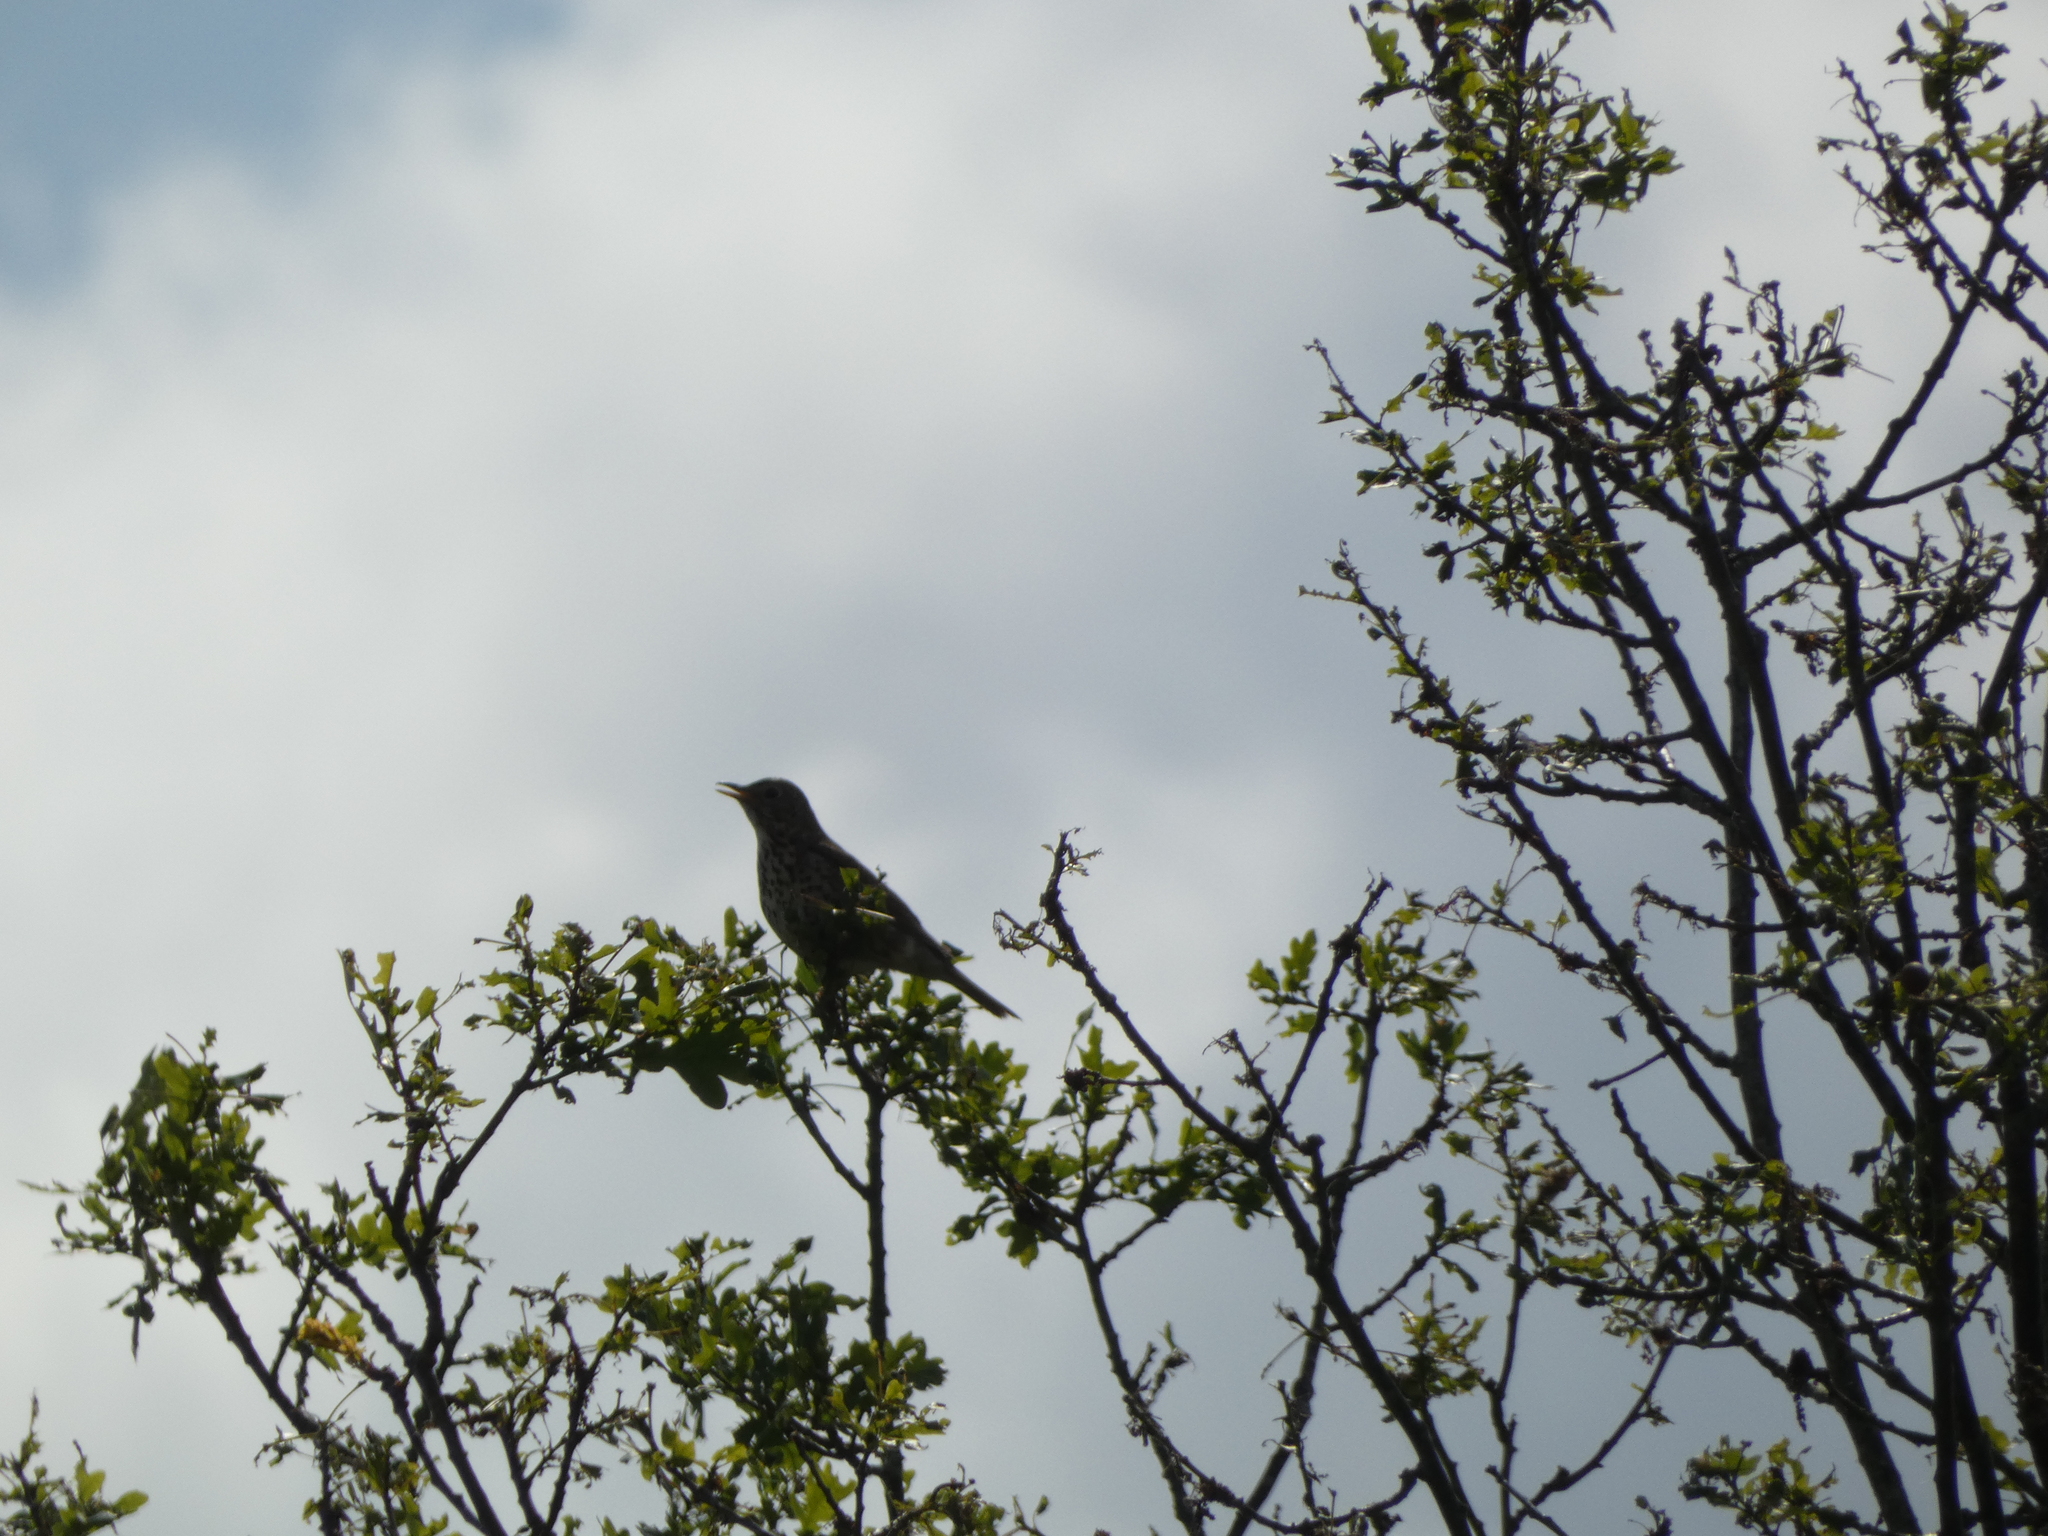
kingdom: Animalia
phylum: Chordata
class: Aves
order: Passeriformes
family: Turdidae
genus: Turdus
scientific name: Turdus philomelos
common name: Song thrush
